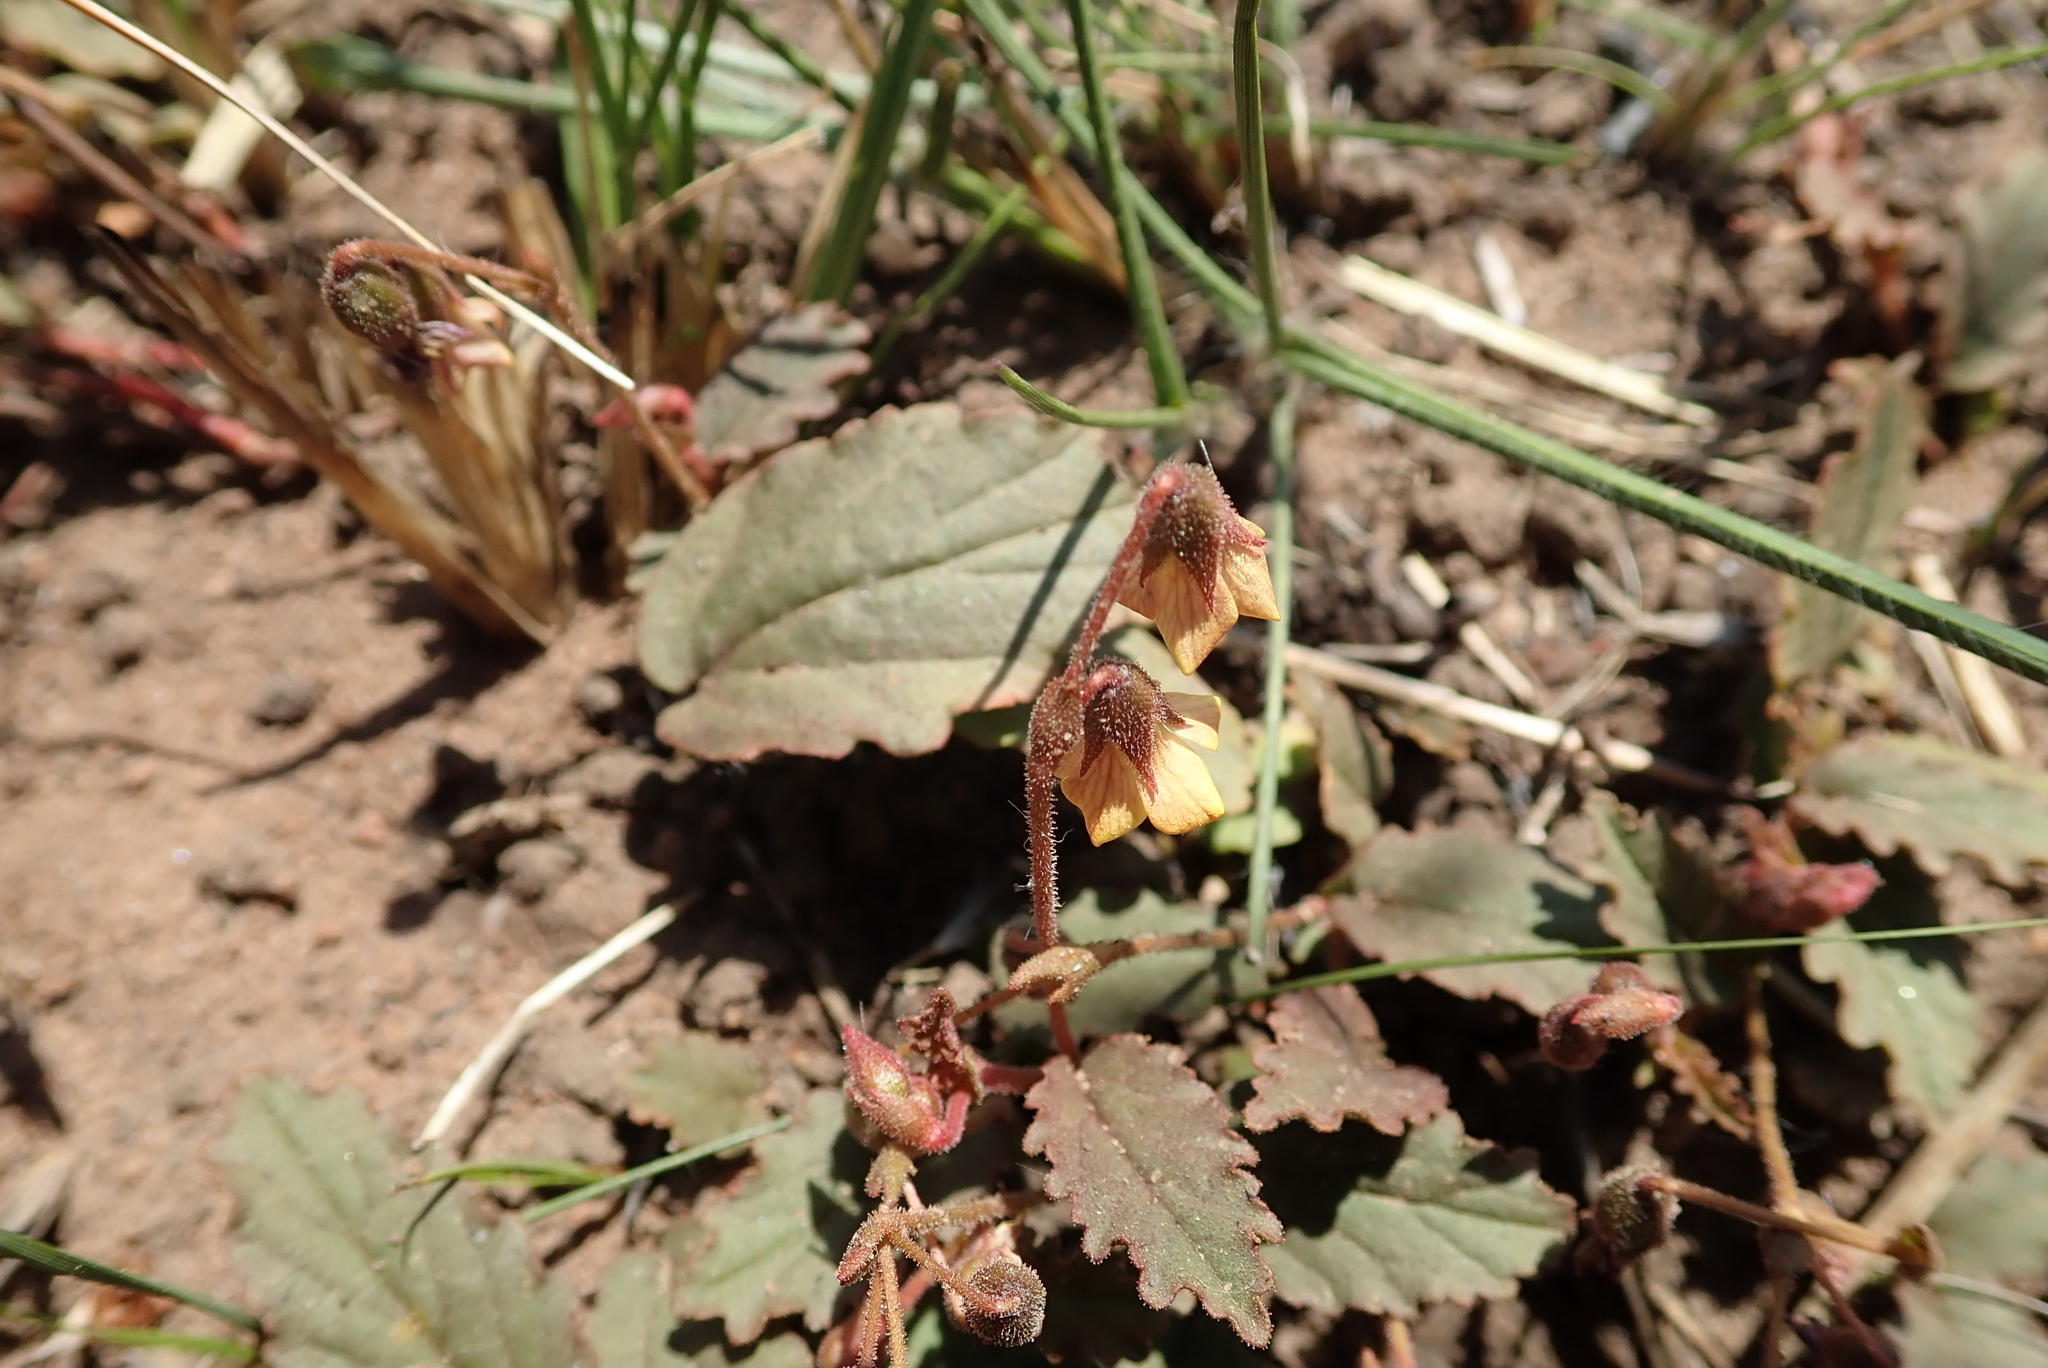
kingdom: Plantae
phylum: Tracheophyta
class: Magnoliopsida
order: Malvales
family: Malvaceae
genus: Hermannia
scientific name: Hermannia depressa
